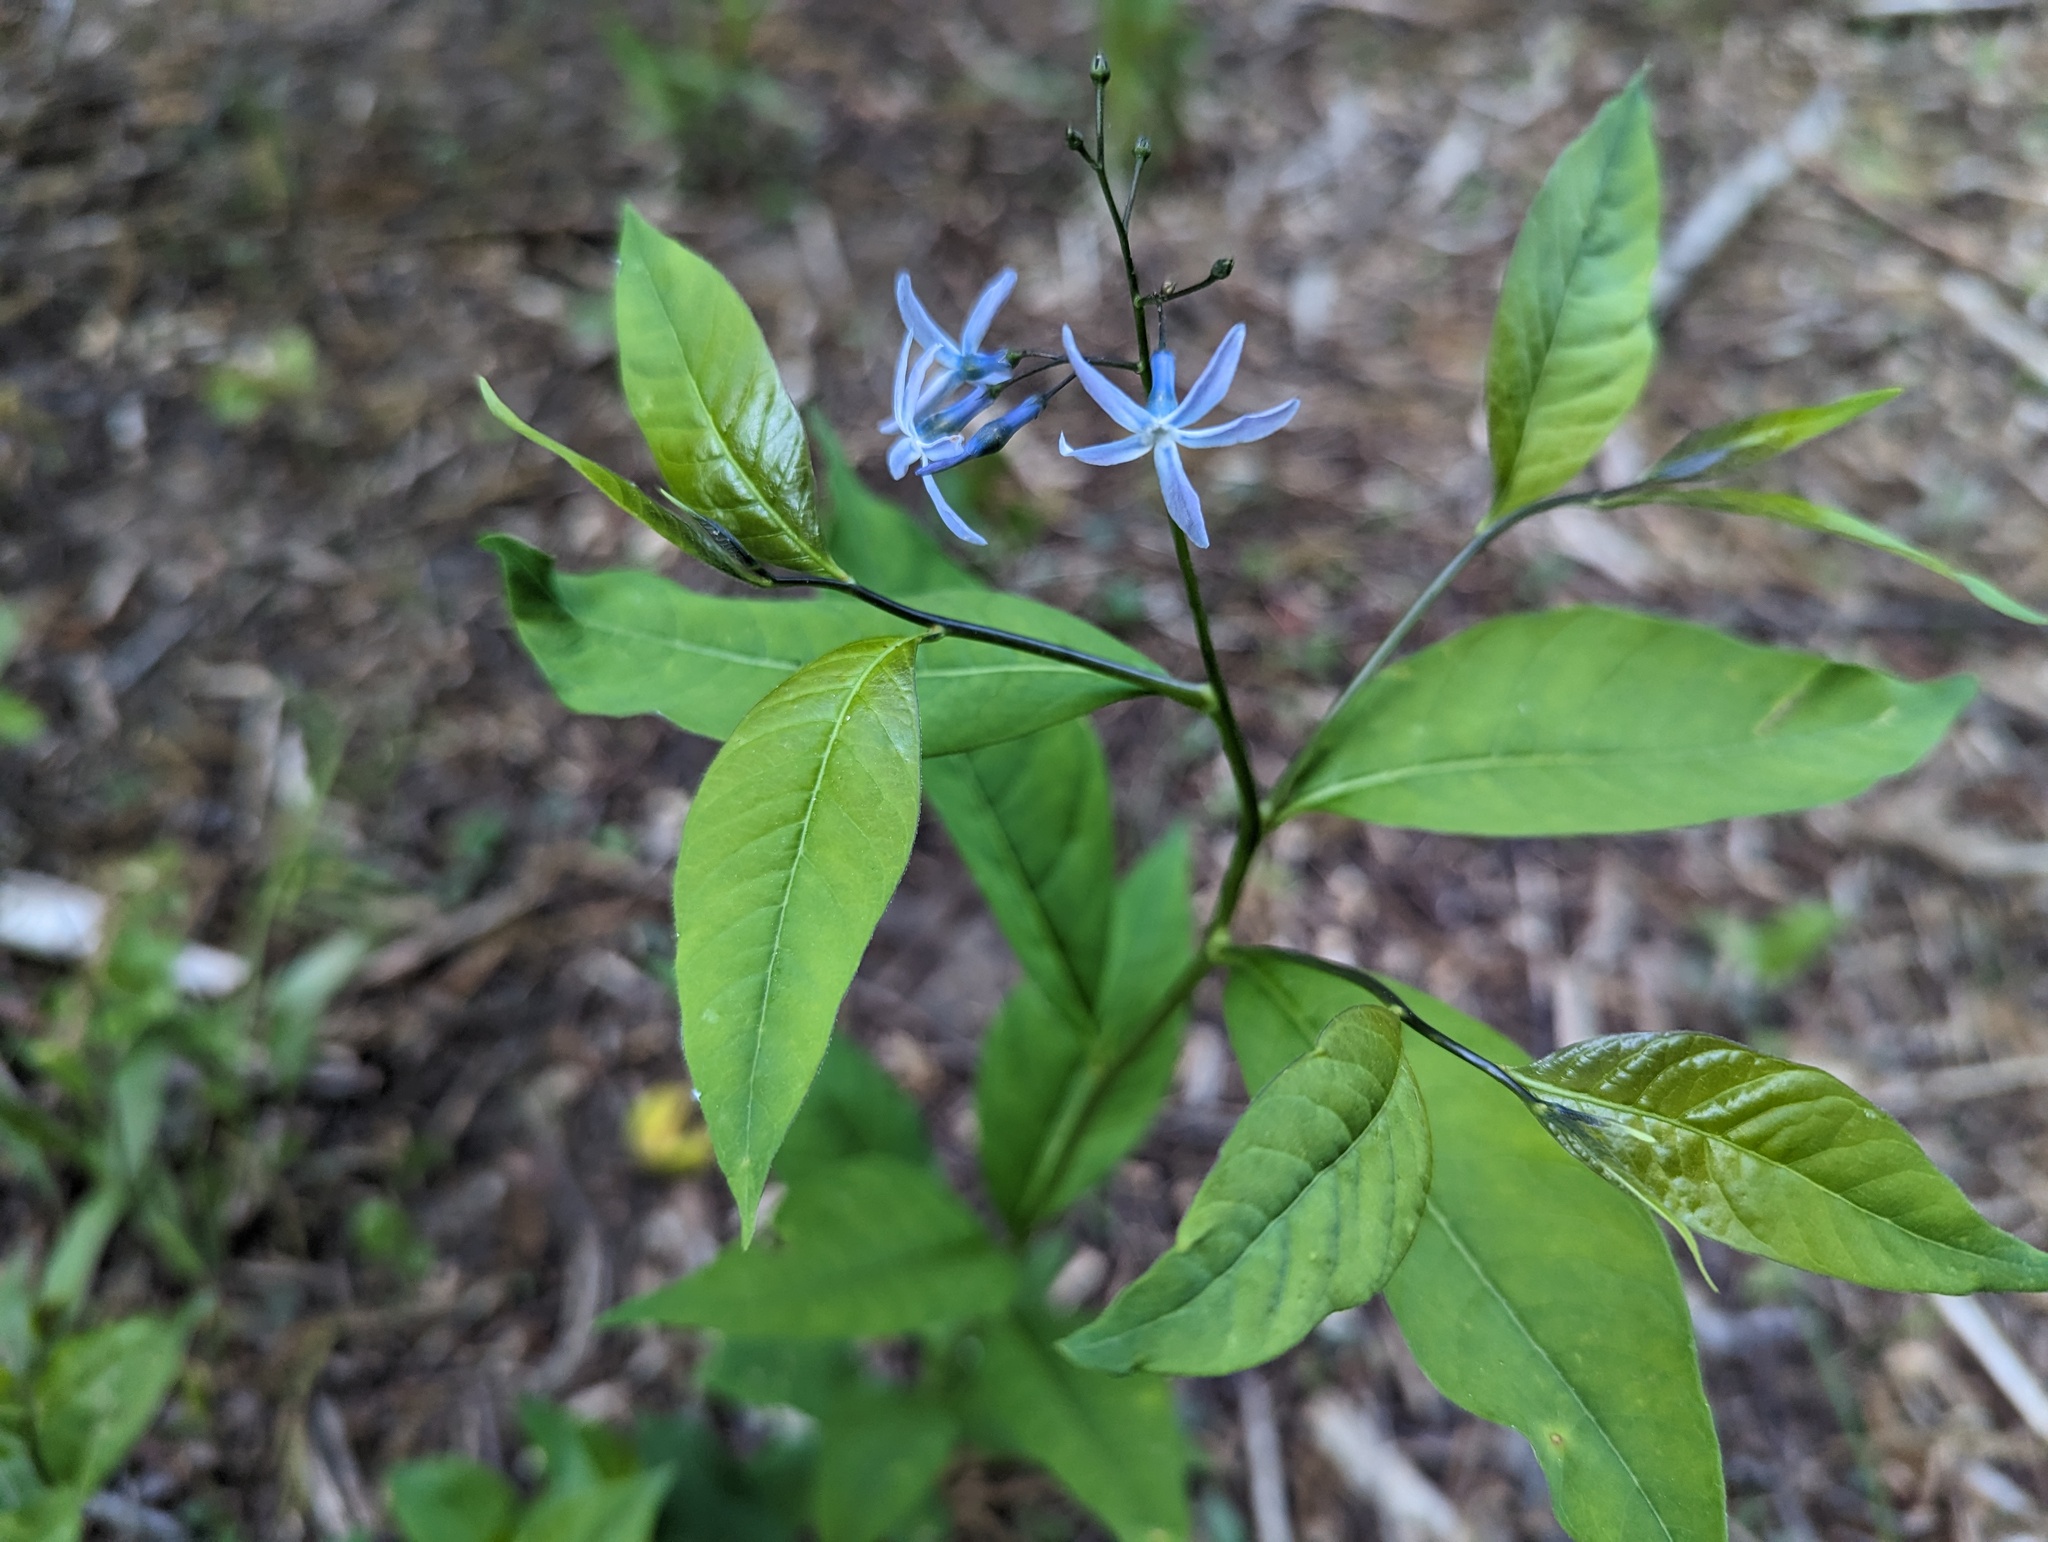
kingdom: Plantae
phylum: Tracheophyta
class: Magnoliopsida
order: Gentianales
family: Apocynaceae
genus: Amsonia
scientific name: Amsonia tabernaemontana
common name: Texas-star
